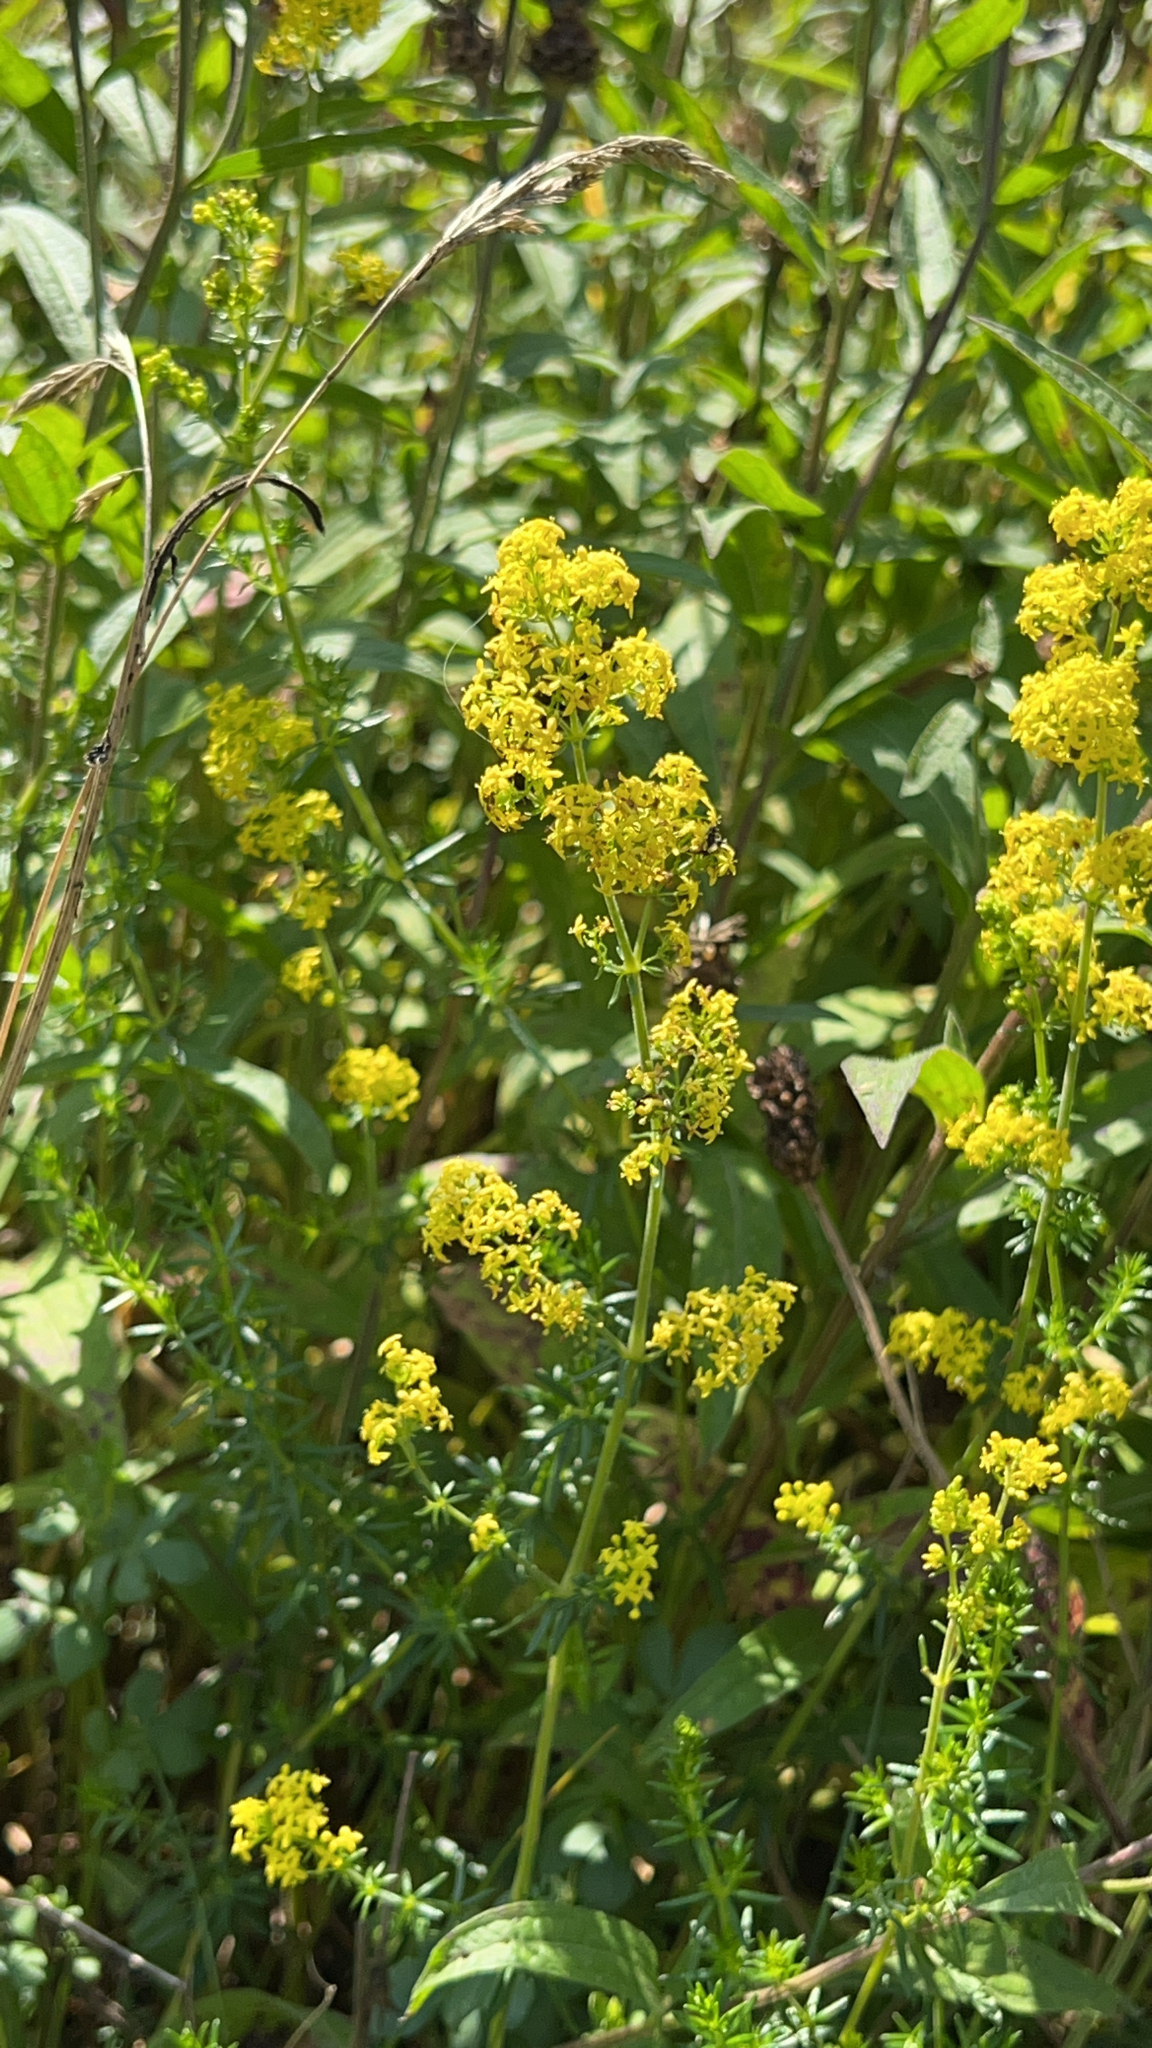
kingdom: Plantae
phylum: Tracheophyta
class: Magnoliopsida
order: Gentianales
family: Rubiaceae
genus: Galium
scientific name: Galium verum
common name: Lady's bedstraw
